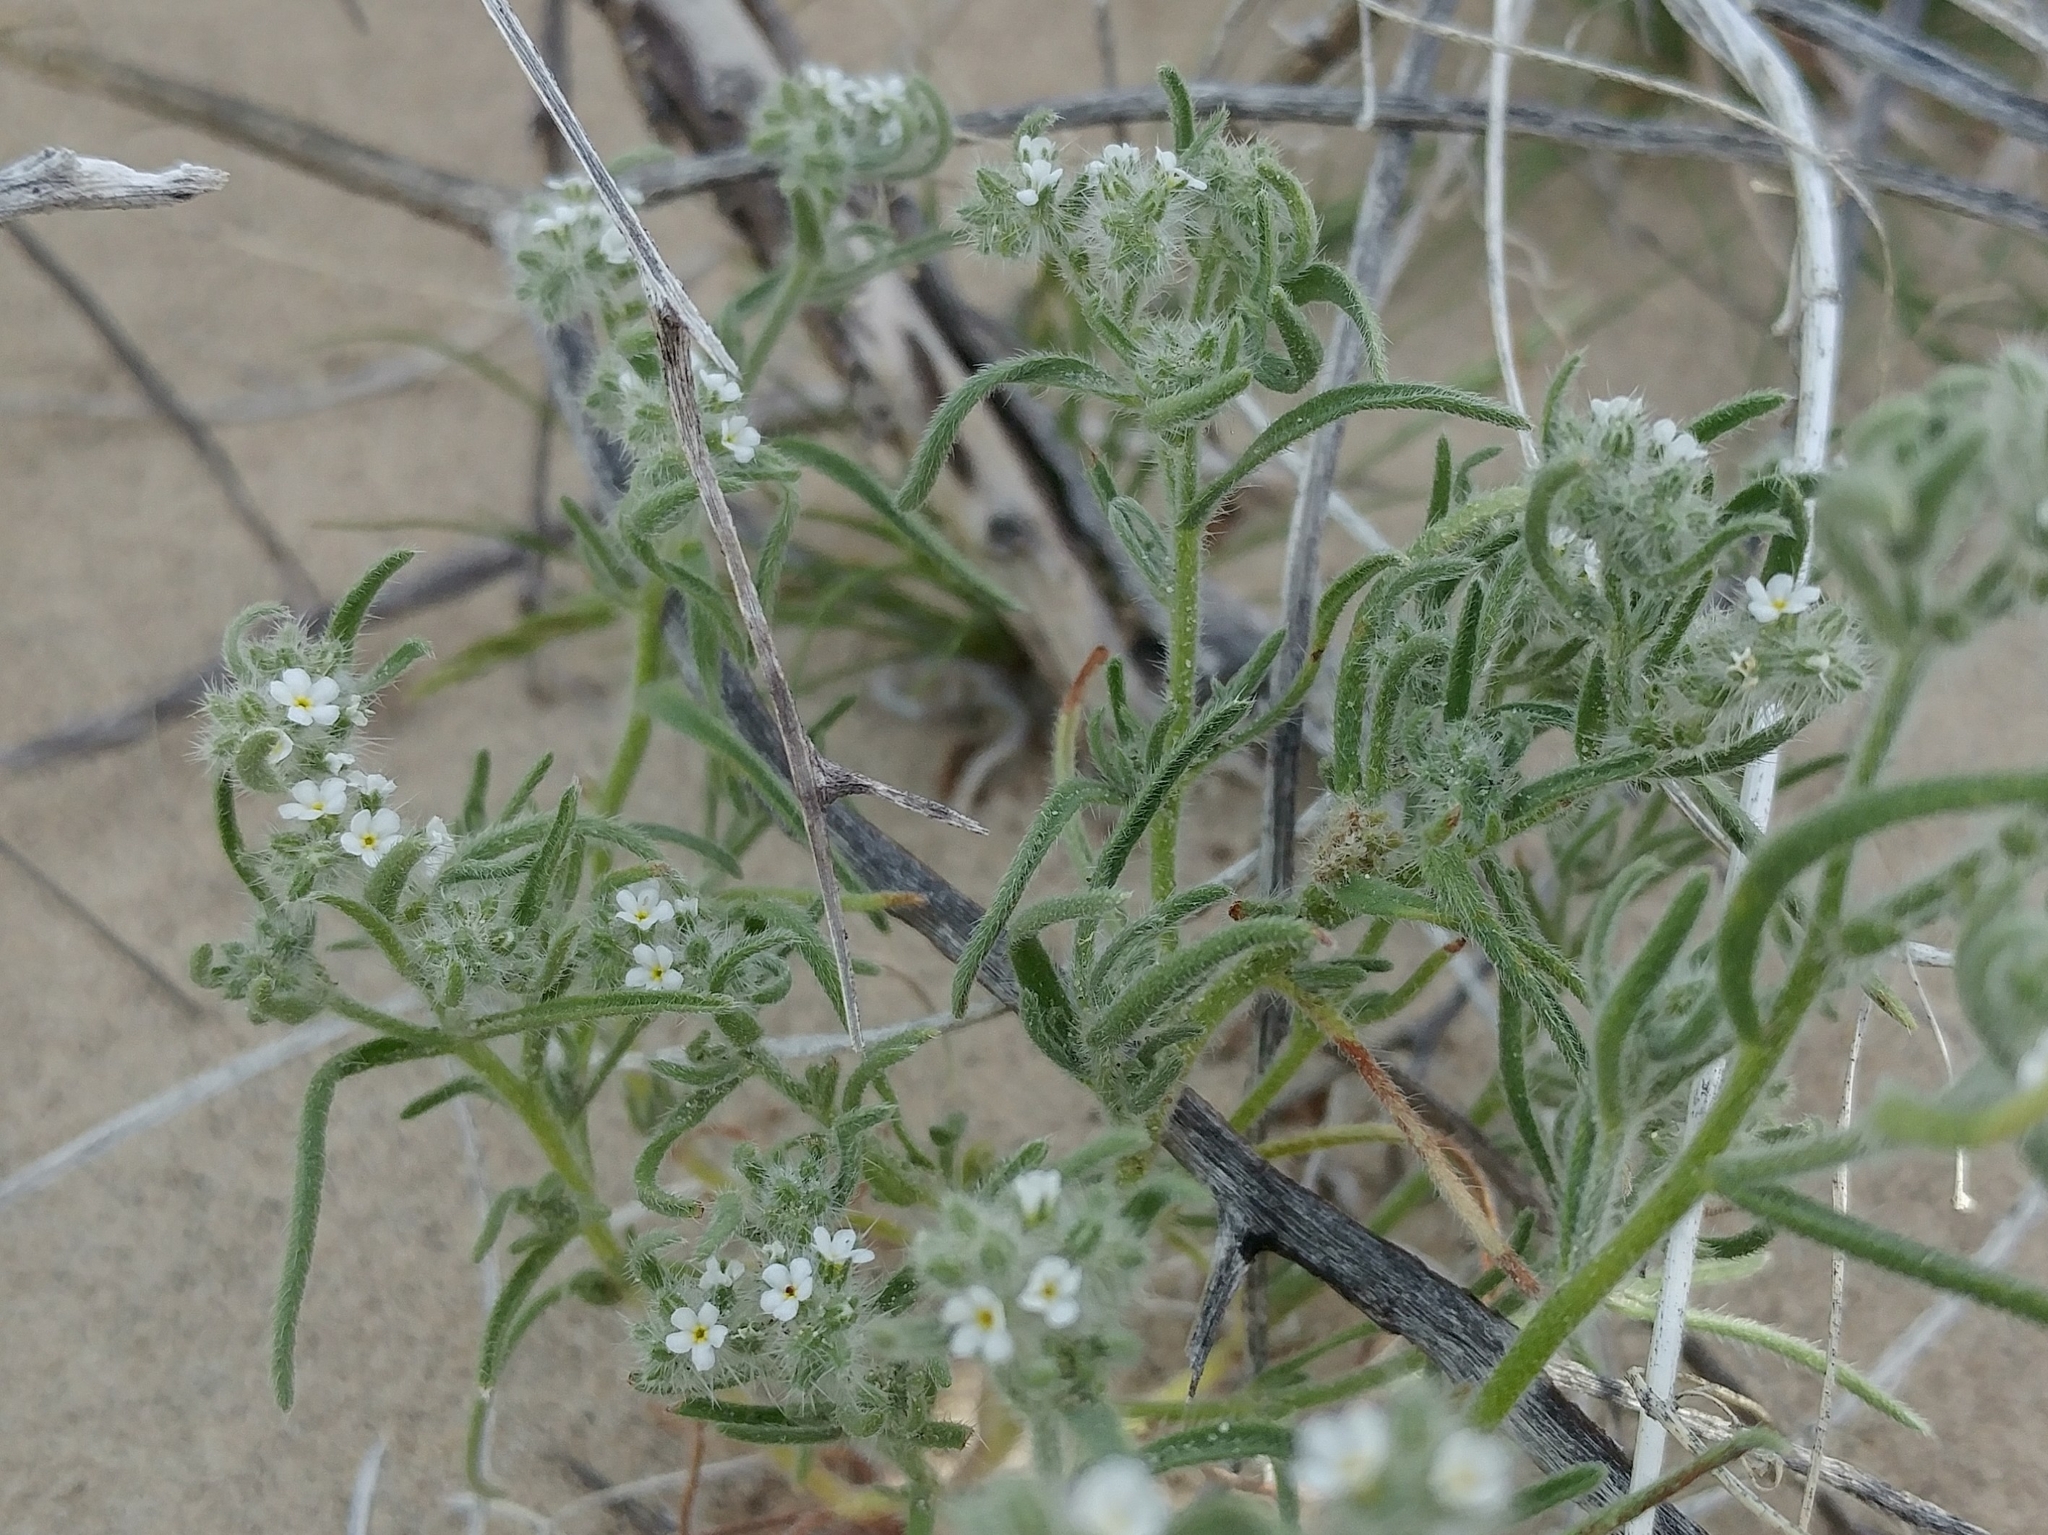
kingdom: Plantae
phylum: Tracheophyta
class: Magnoliopsida
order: Boraginales
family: Boraginaceae
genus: Johnstonella
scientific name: Johnstonella angustifolia
